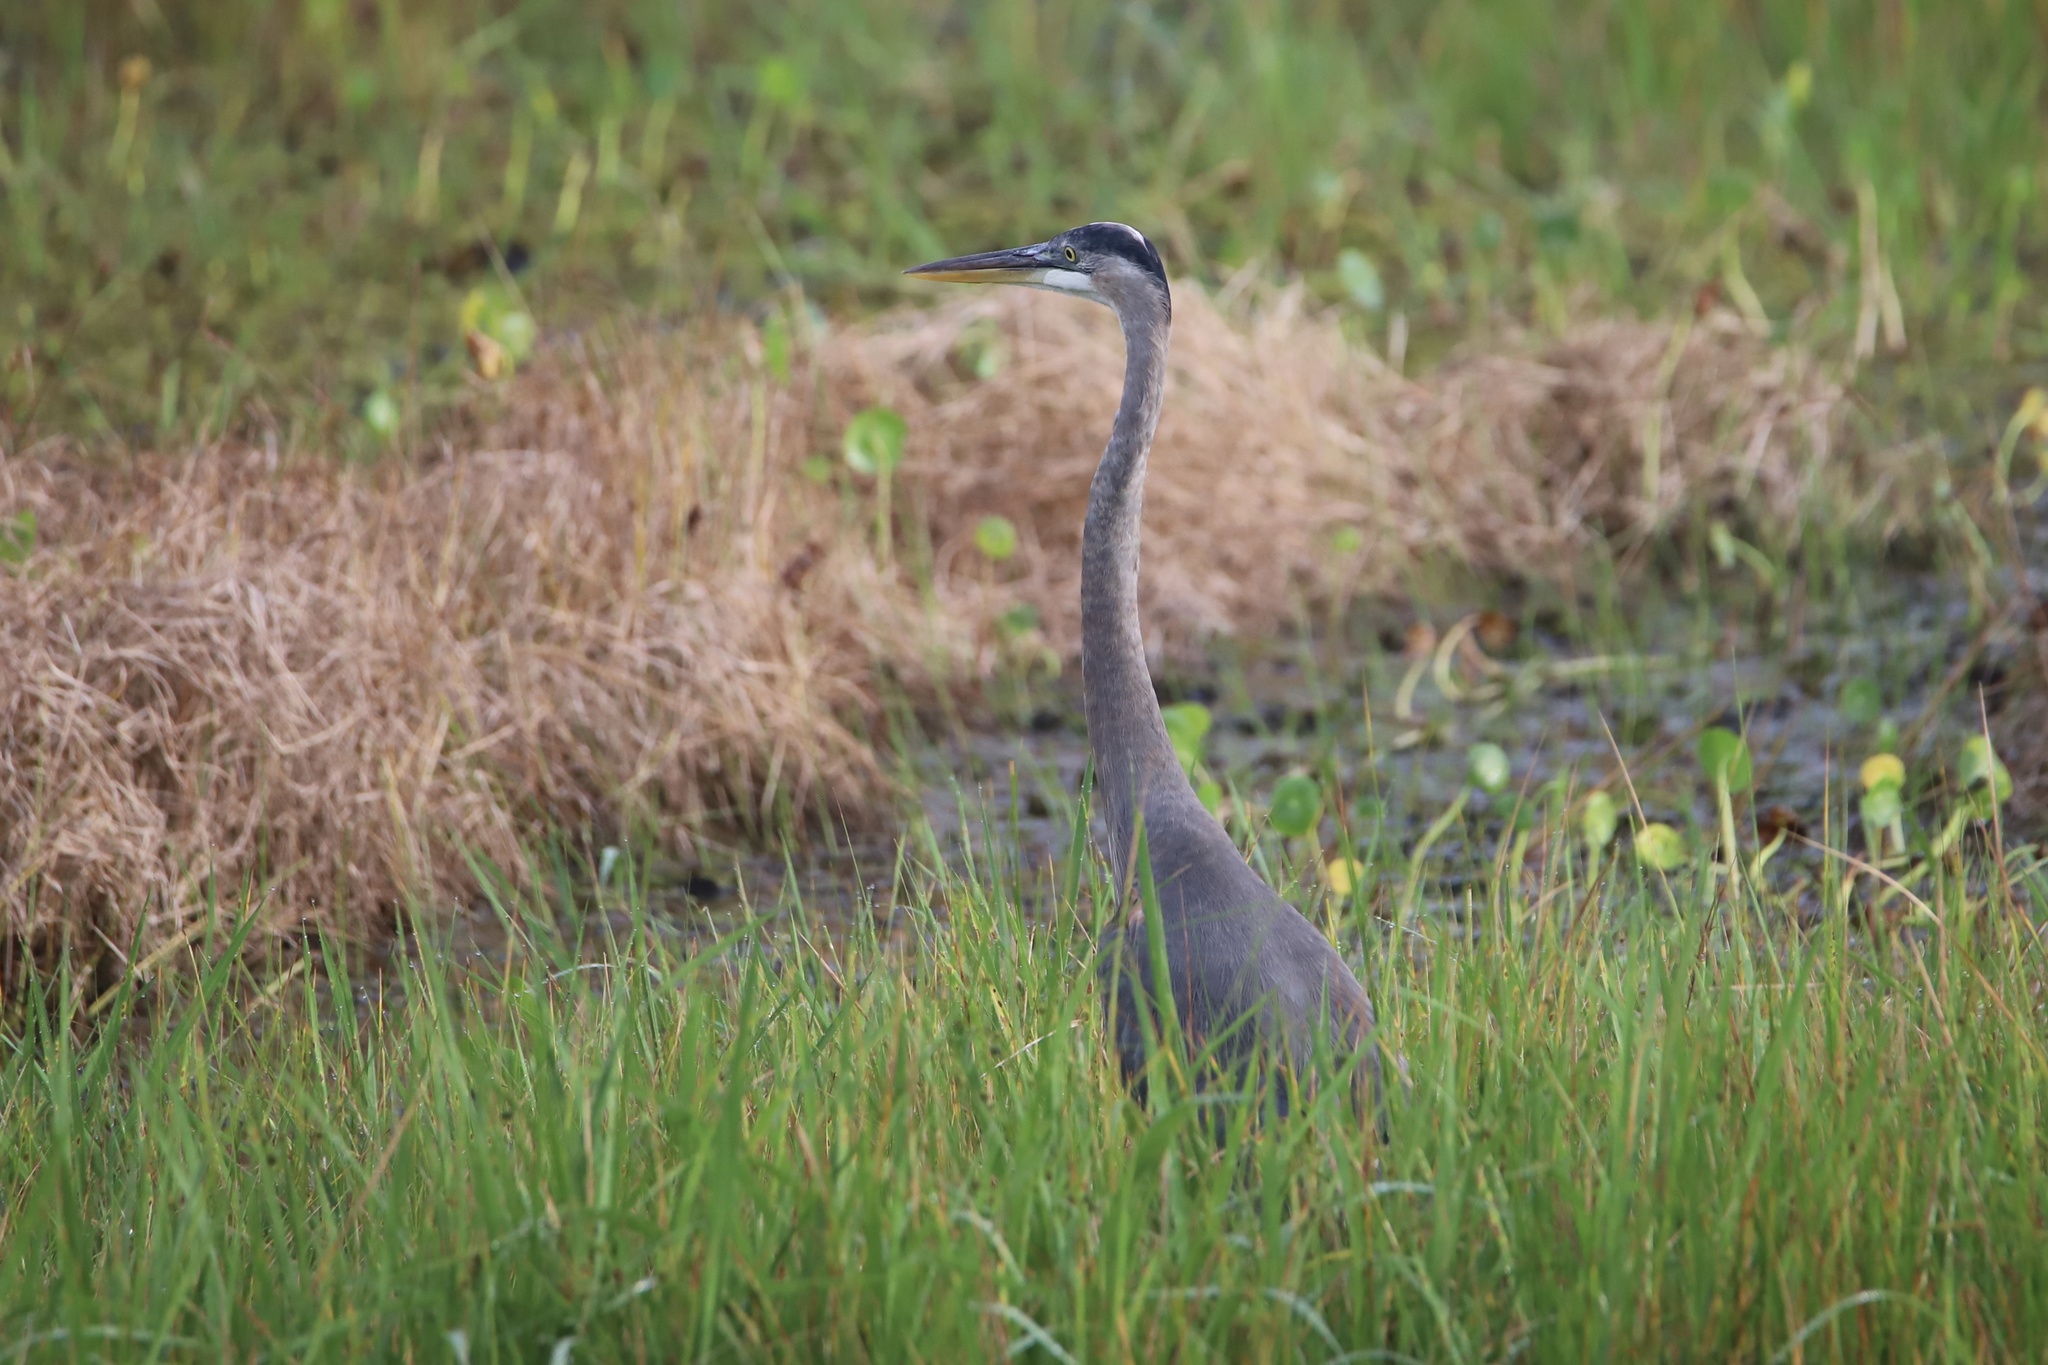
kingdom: Animalia
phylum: Chordata
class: Aves
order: Pelecaniformes
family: Ardeidae
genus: Ardea
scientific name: Ardea herodias
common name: Great blue heron
